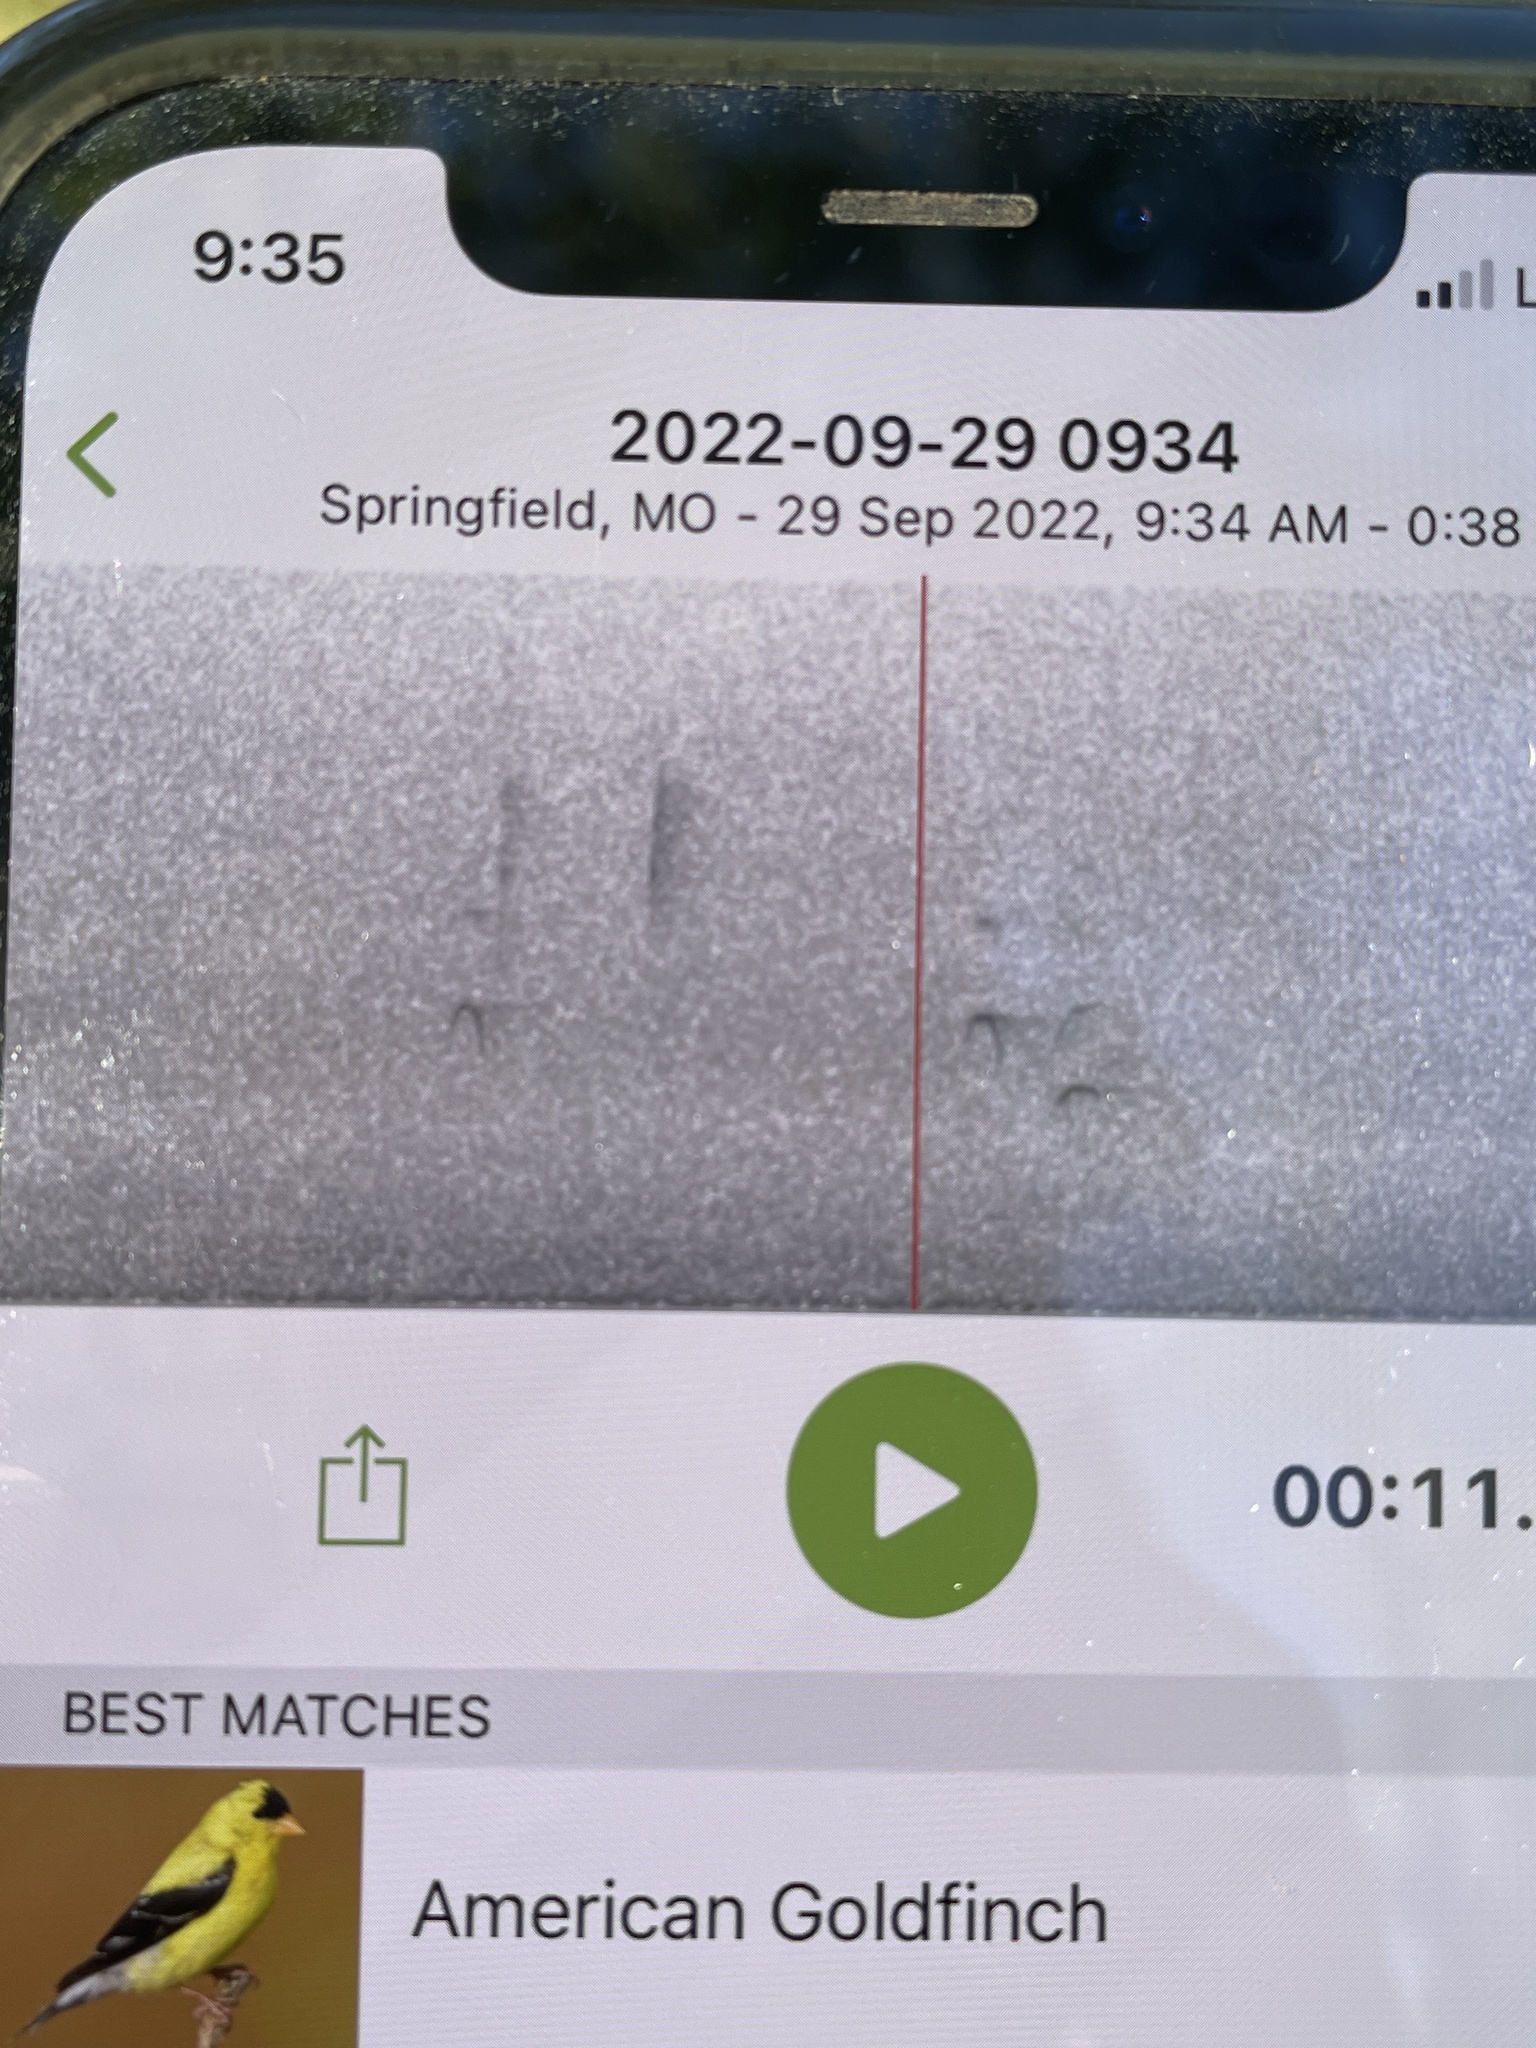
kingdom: Animalia
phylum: Chordata
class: Aves
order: Passeriformes
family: Fringillidae
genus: Spinus
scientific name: Spinus tristis
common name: American goldfinch
